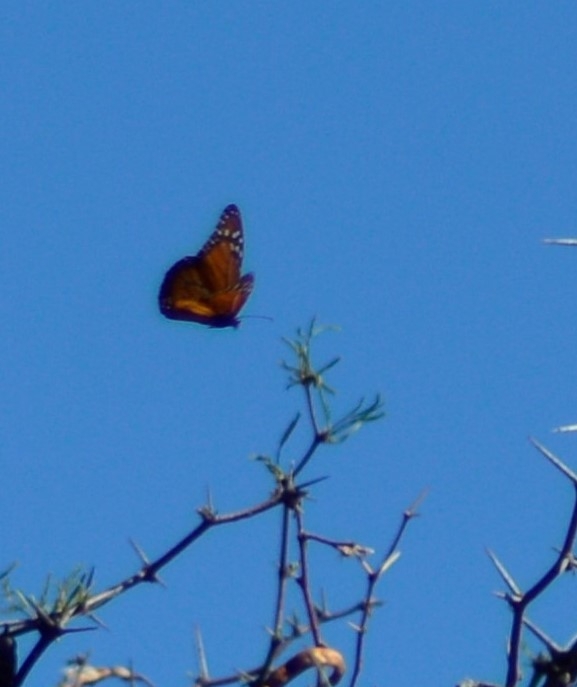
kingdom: Animalia
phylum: Arthropoda
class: Insecta
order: Lepidoptera
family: Nymphalidae
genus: Danaus
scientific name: Danaus erippus
